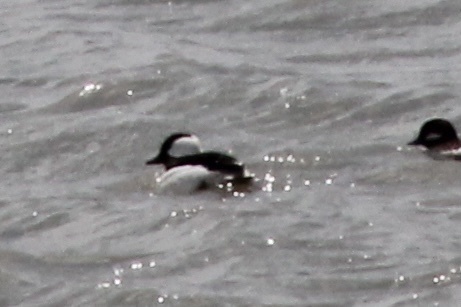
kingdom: Animalia
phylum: Chordata
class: Aves
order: Anseriformes
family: Anatidae
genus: Bucephala
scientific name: Bucephala albeola
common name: Bufflehead
